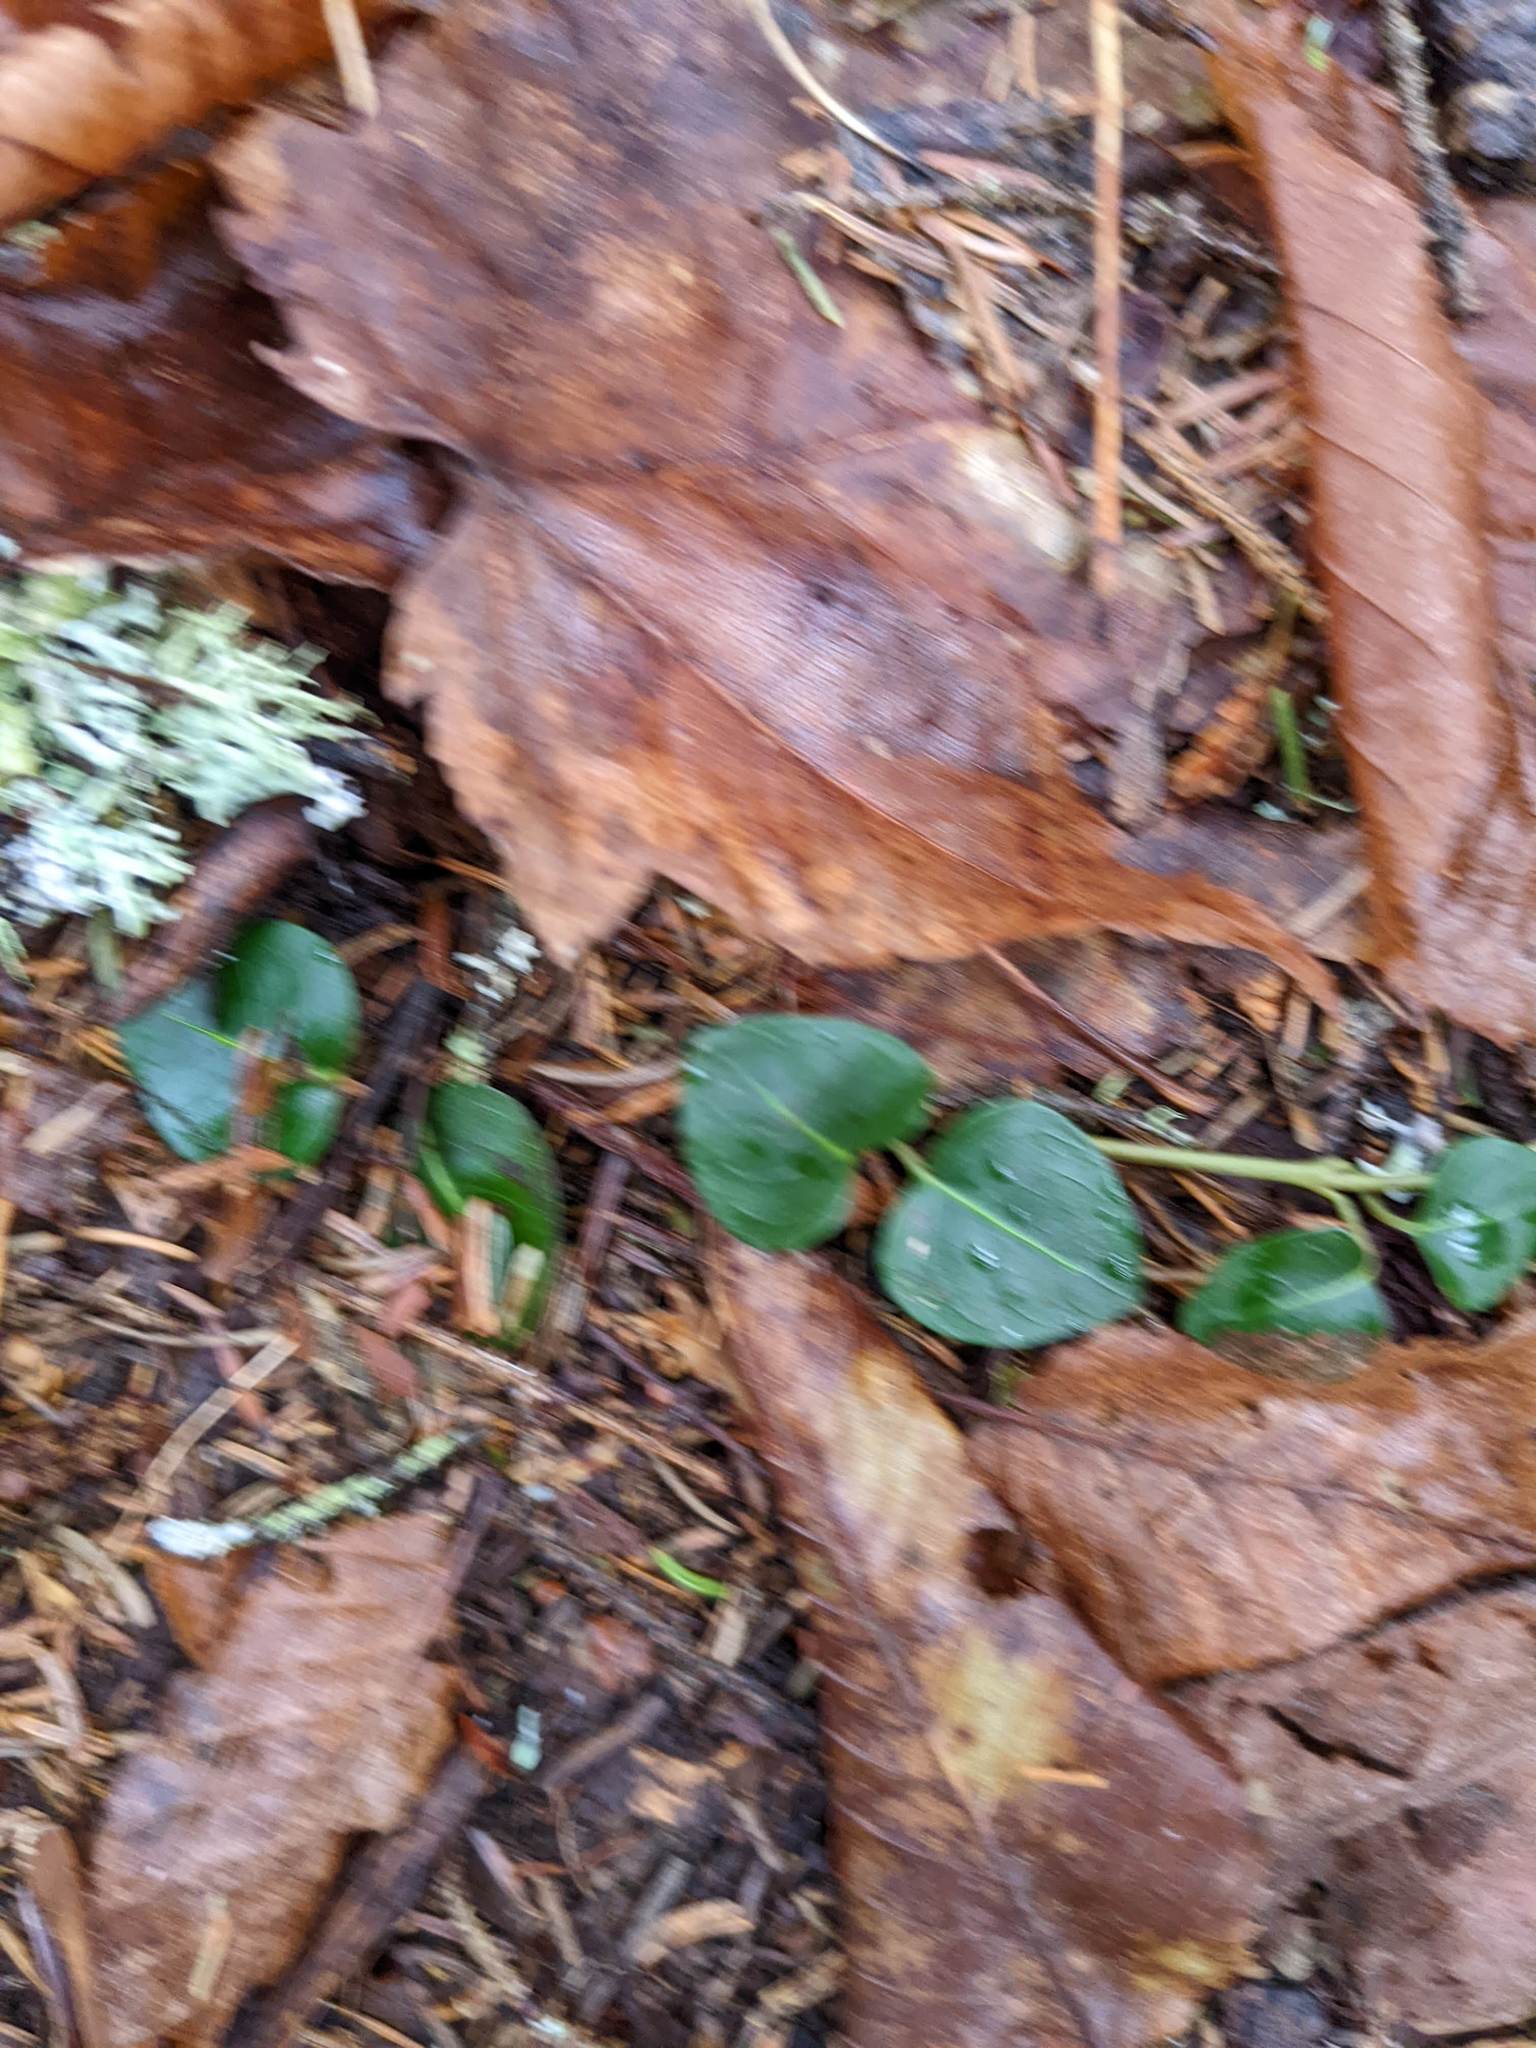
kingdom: Plantae
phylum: Tracheophyta
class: Magnoliopsida
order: Gentianales
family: Rubiaceae
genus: Mitchella
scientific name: Mitchella repens
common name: Partridge-berry
